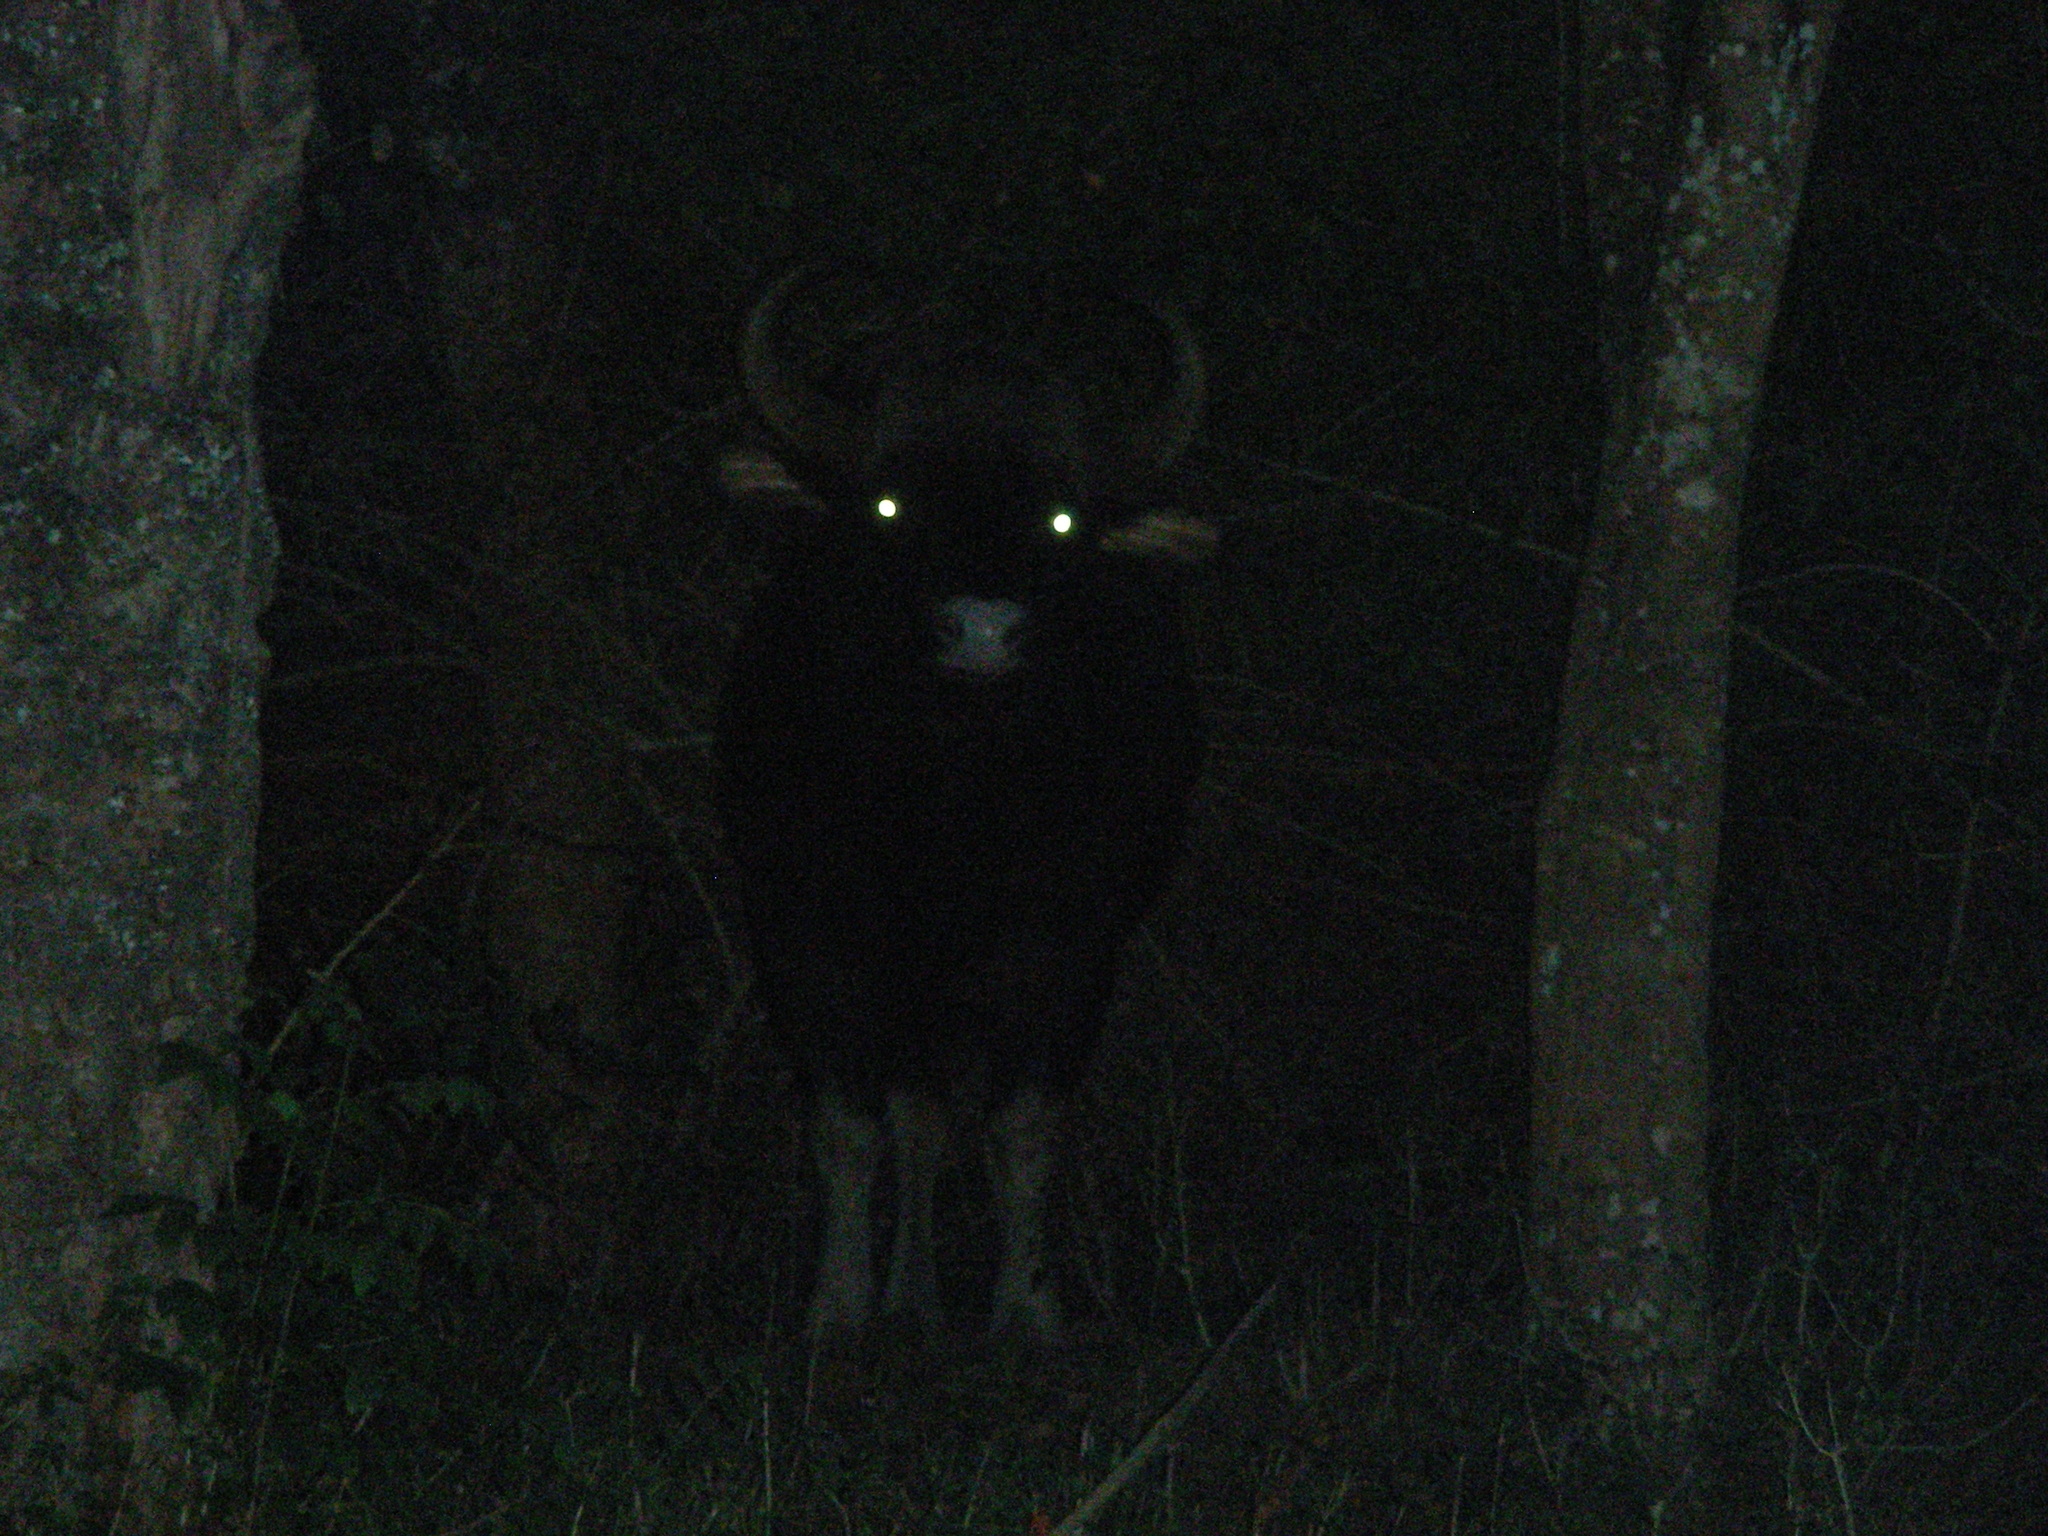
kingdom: Animalia
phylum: Chordata
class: Mammalia
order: Artiodactyla
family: Bovidae
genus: Bos
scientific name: Bos frontalis
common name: Gaur
